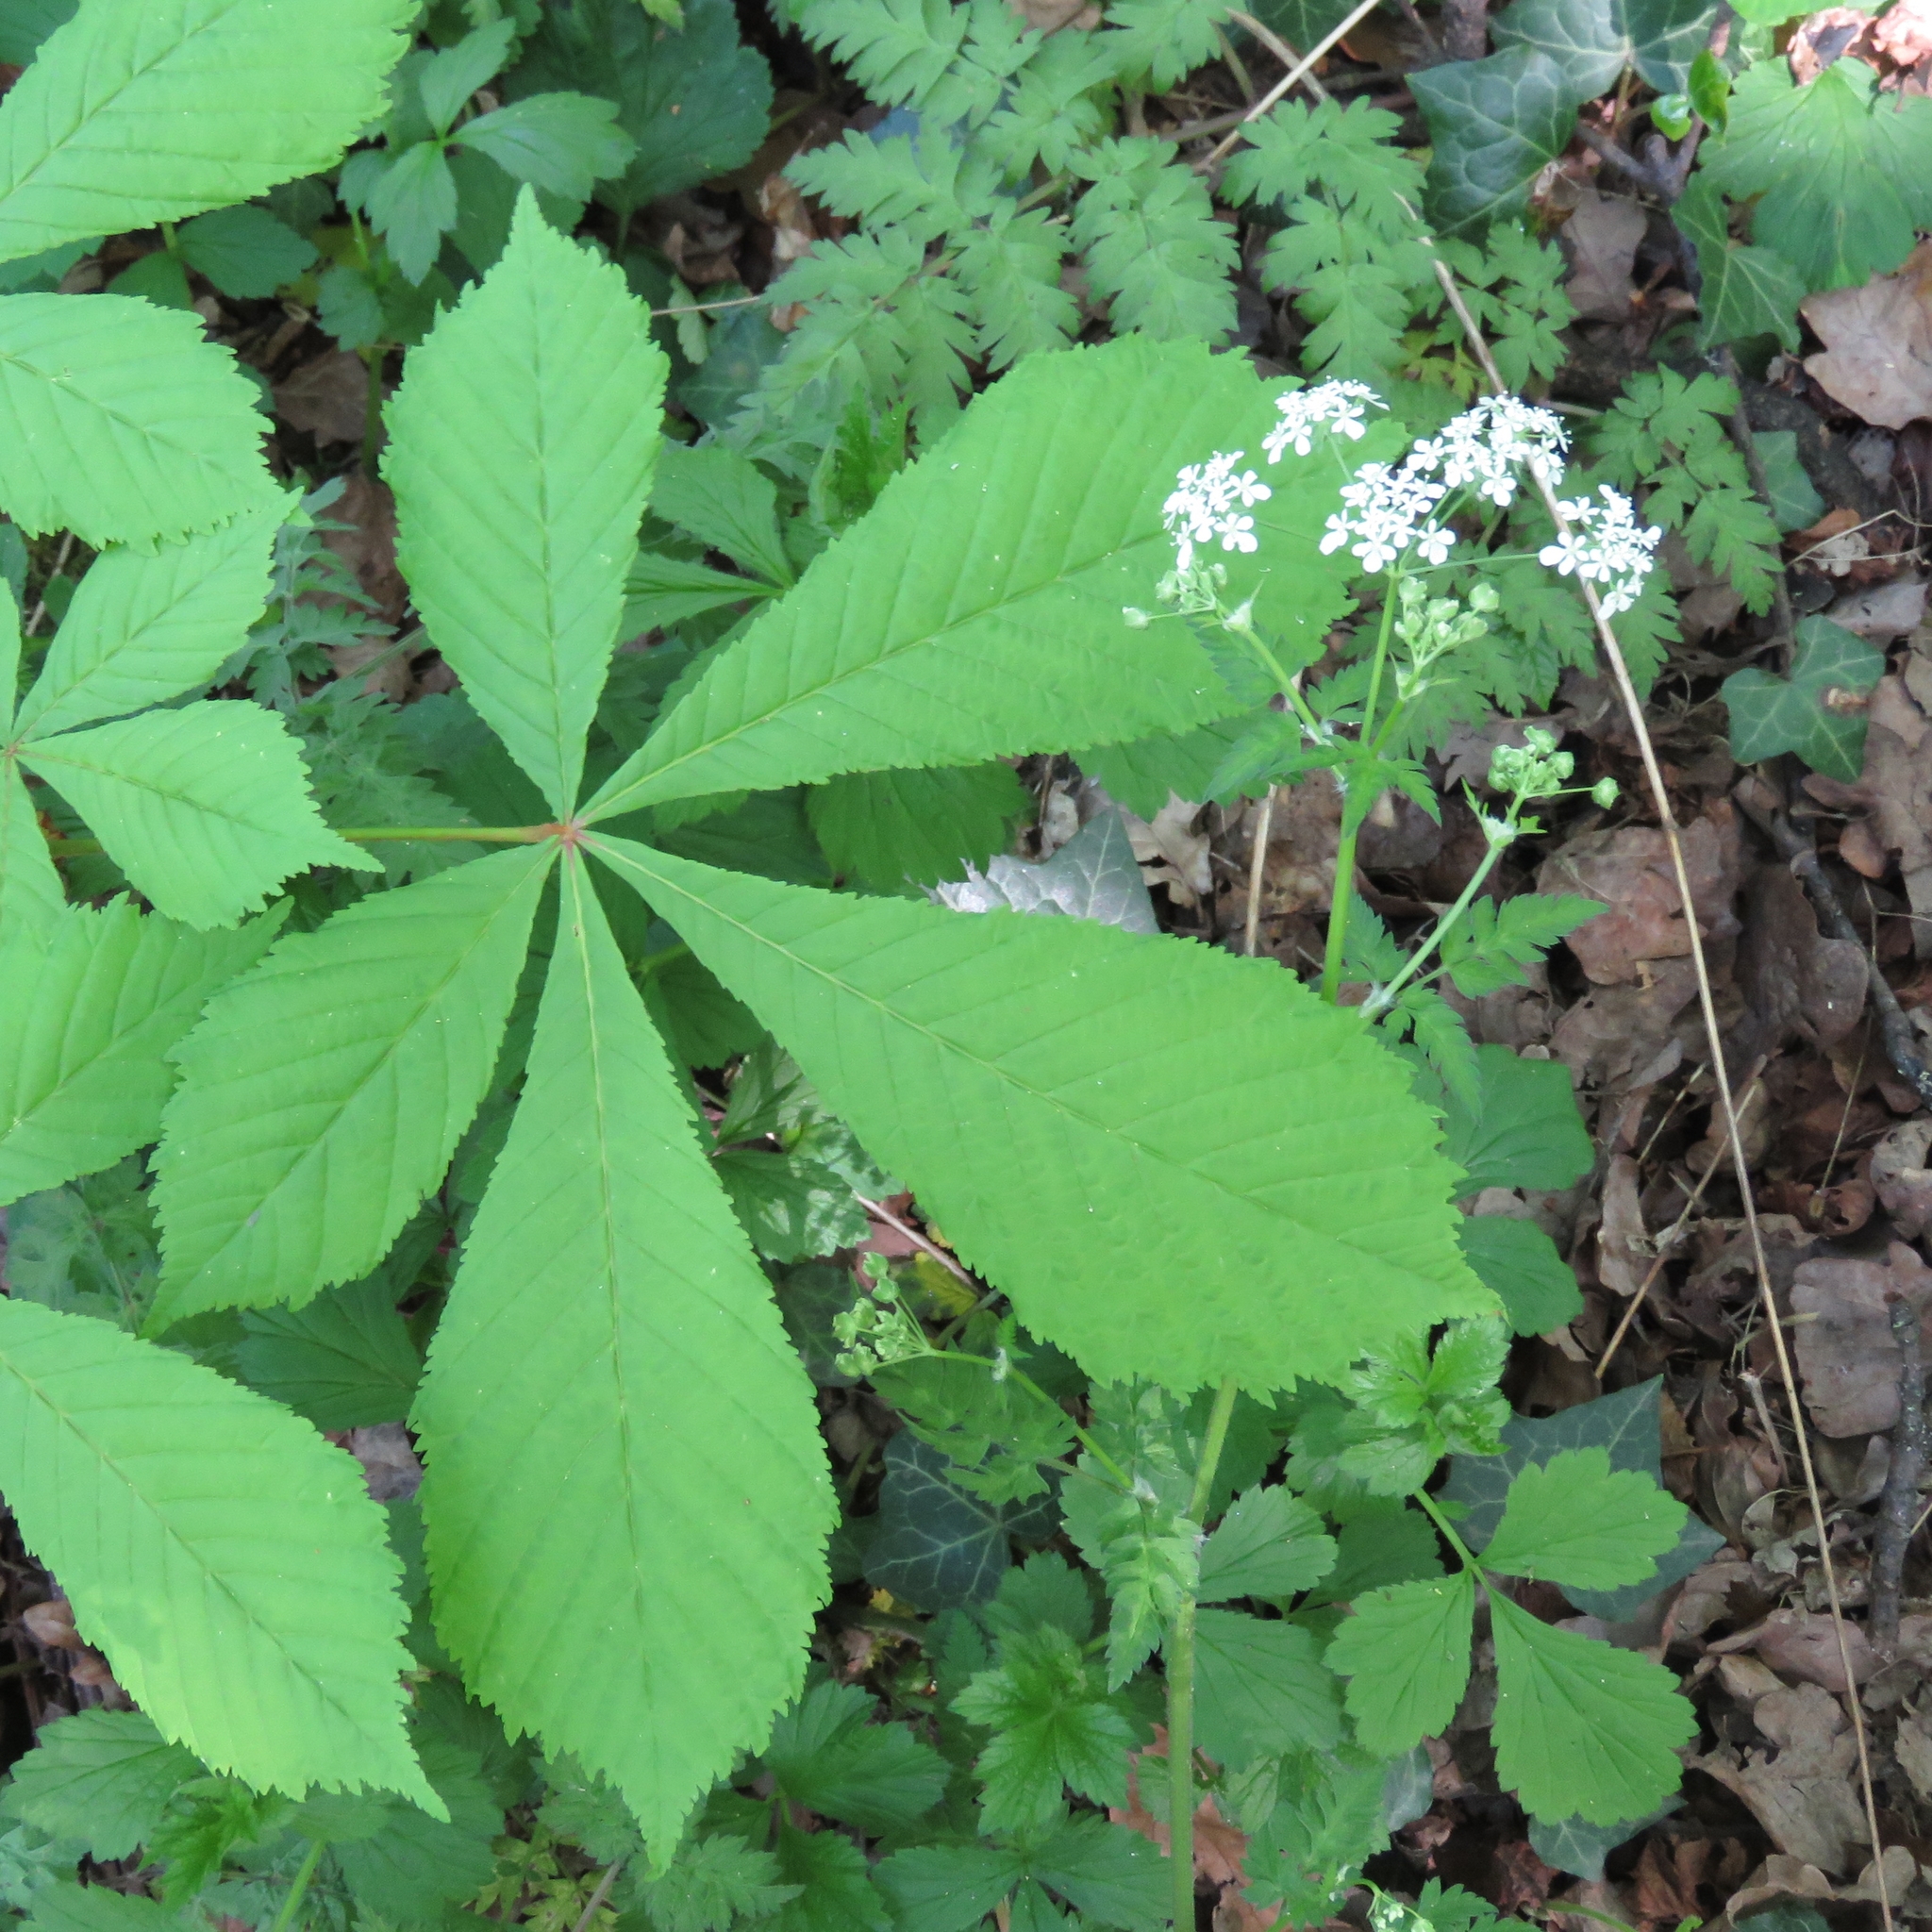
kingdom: Plantae
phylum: Tracheophyta
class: Magnoliopsida
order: Sapindales
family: Sapindaceae
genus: Aesculus
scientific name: Aesculus hippocastanum
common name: Horse-chestnut
